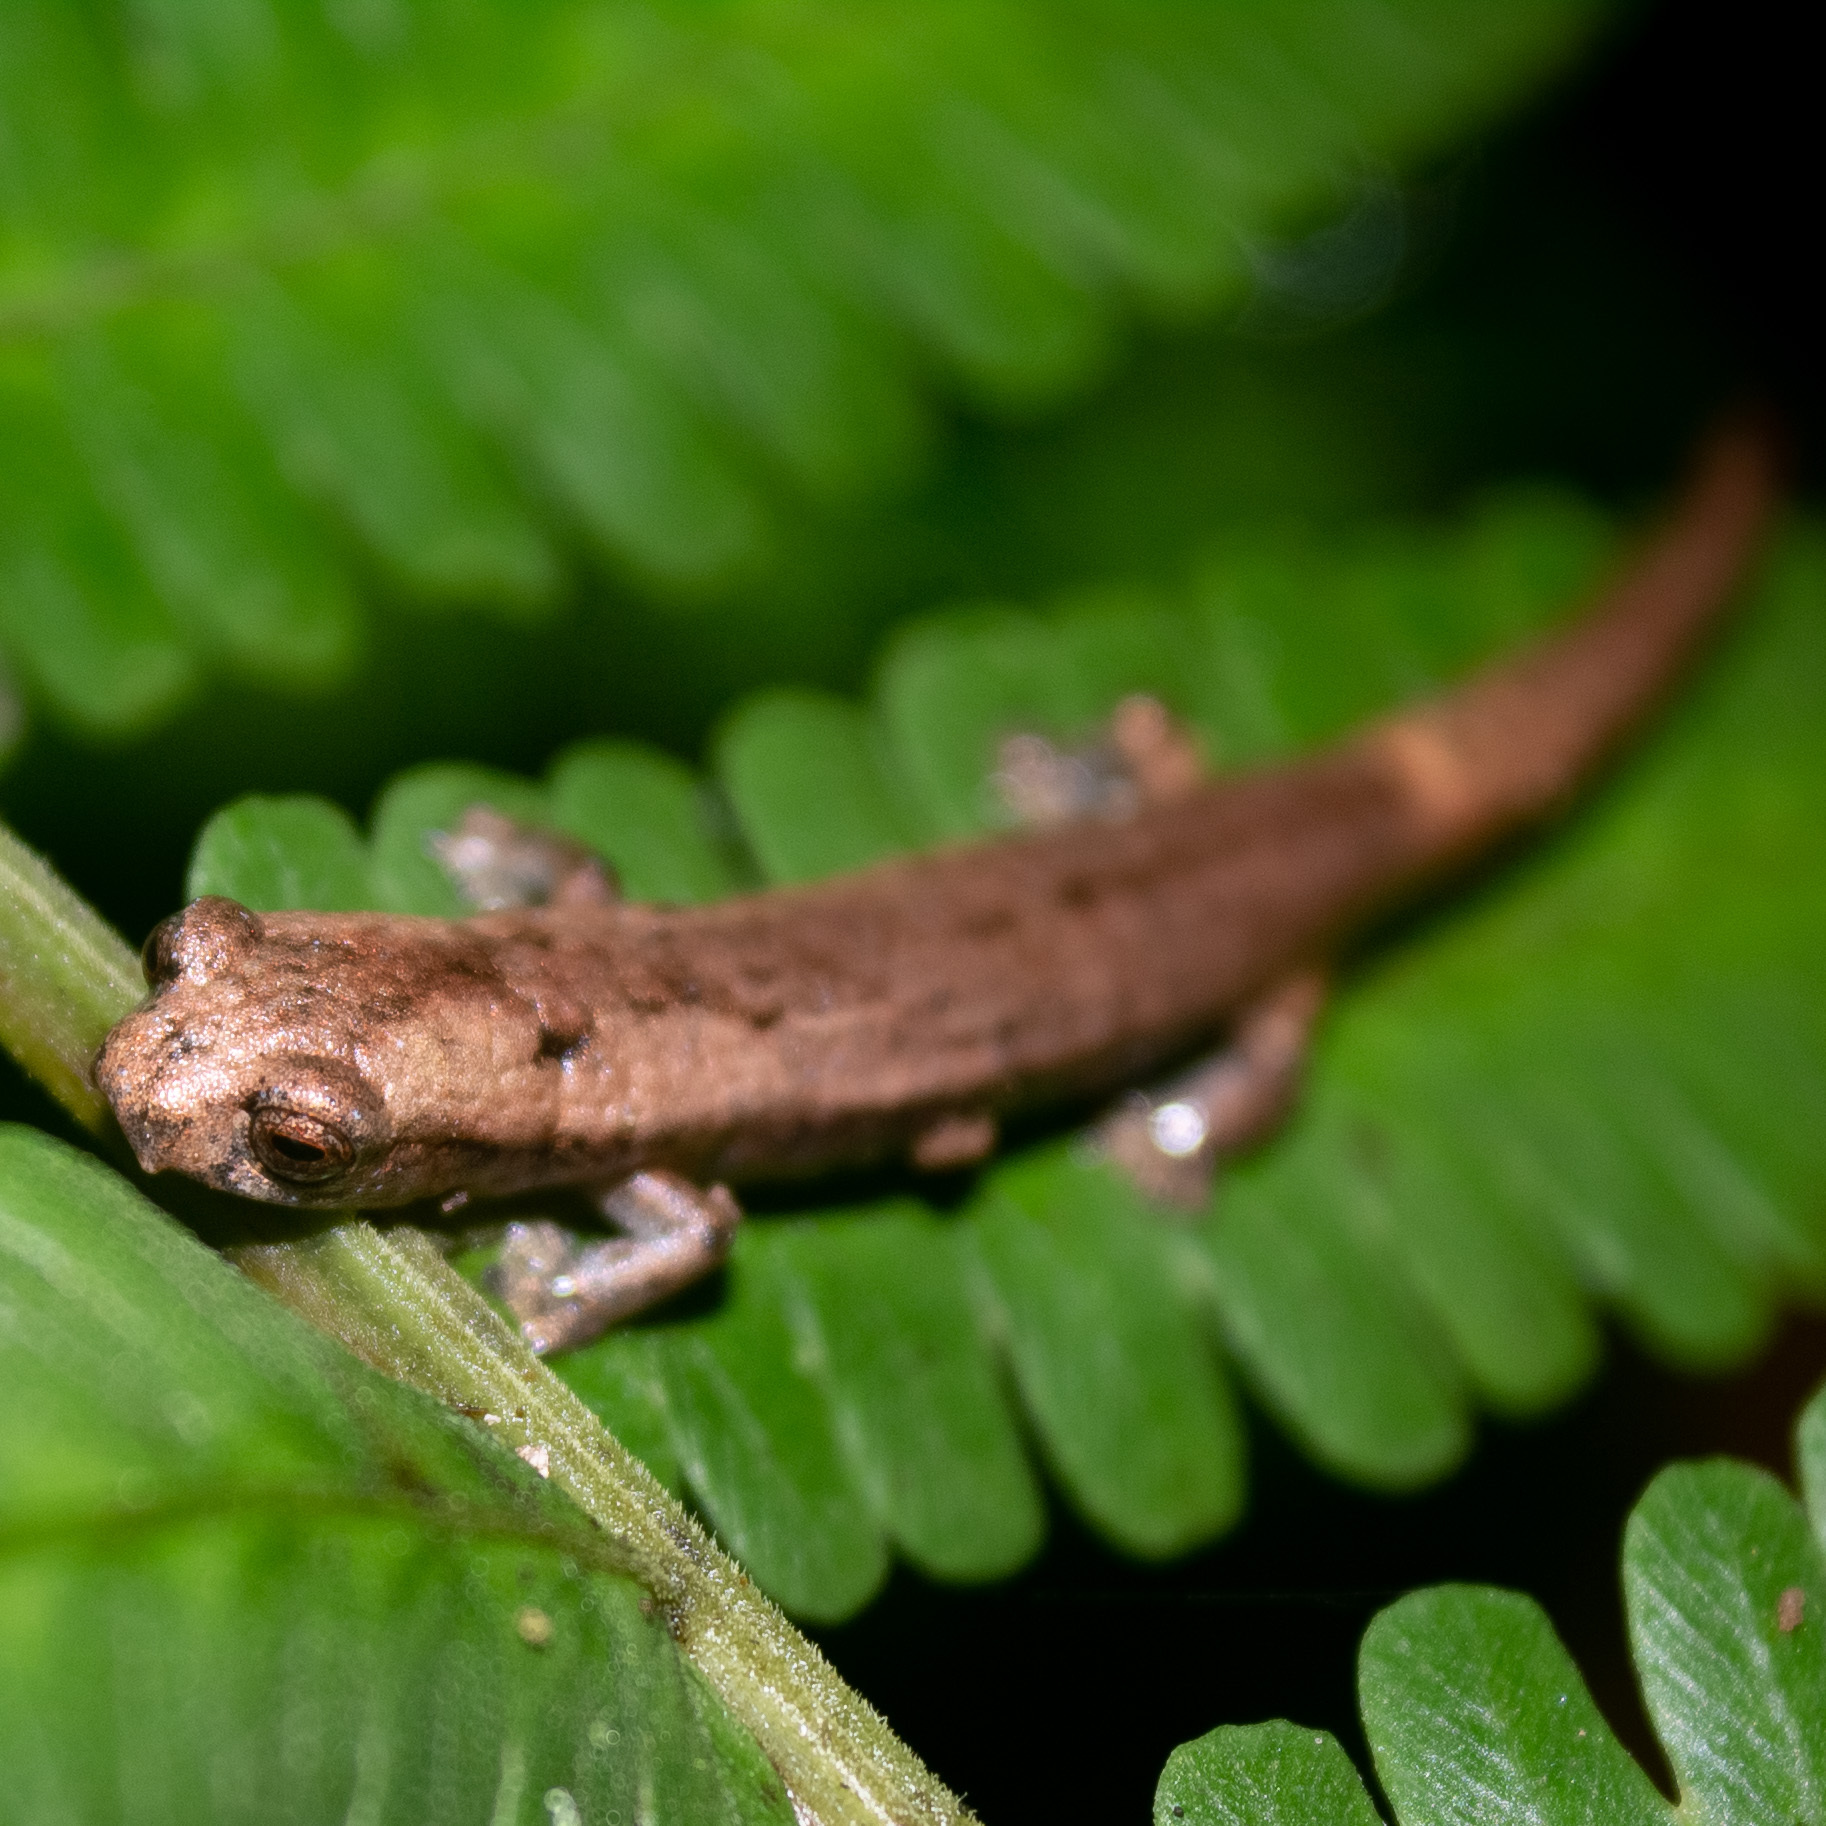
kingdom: Animalia
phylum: Chordata
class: Amphibia
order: Caudata
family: Plethodontidae
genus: Bolitoglossa
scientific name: Bolitoglossa savagei
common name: Savage's mushroomtongue salamander
